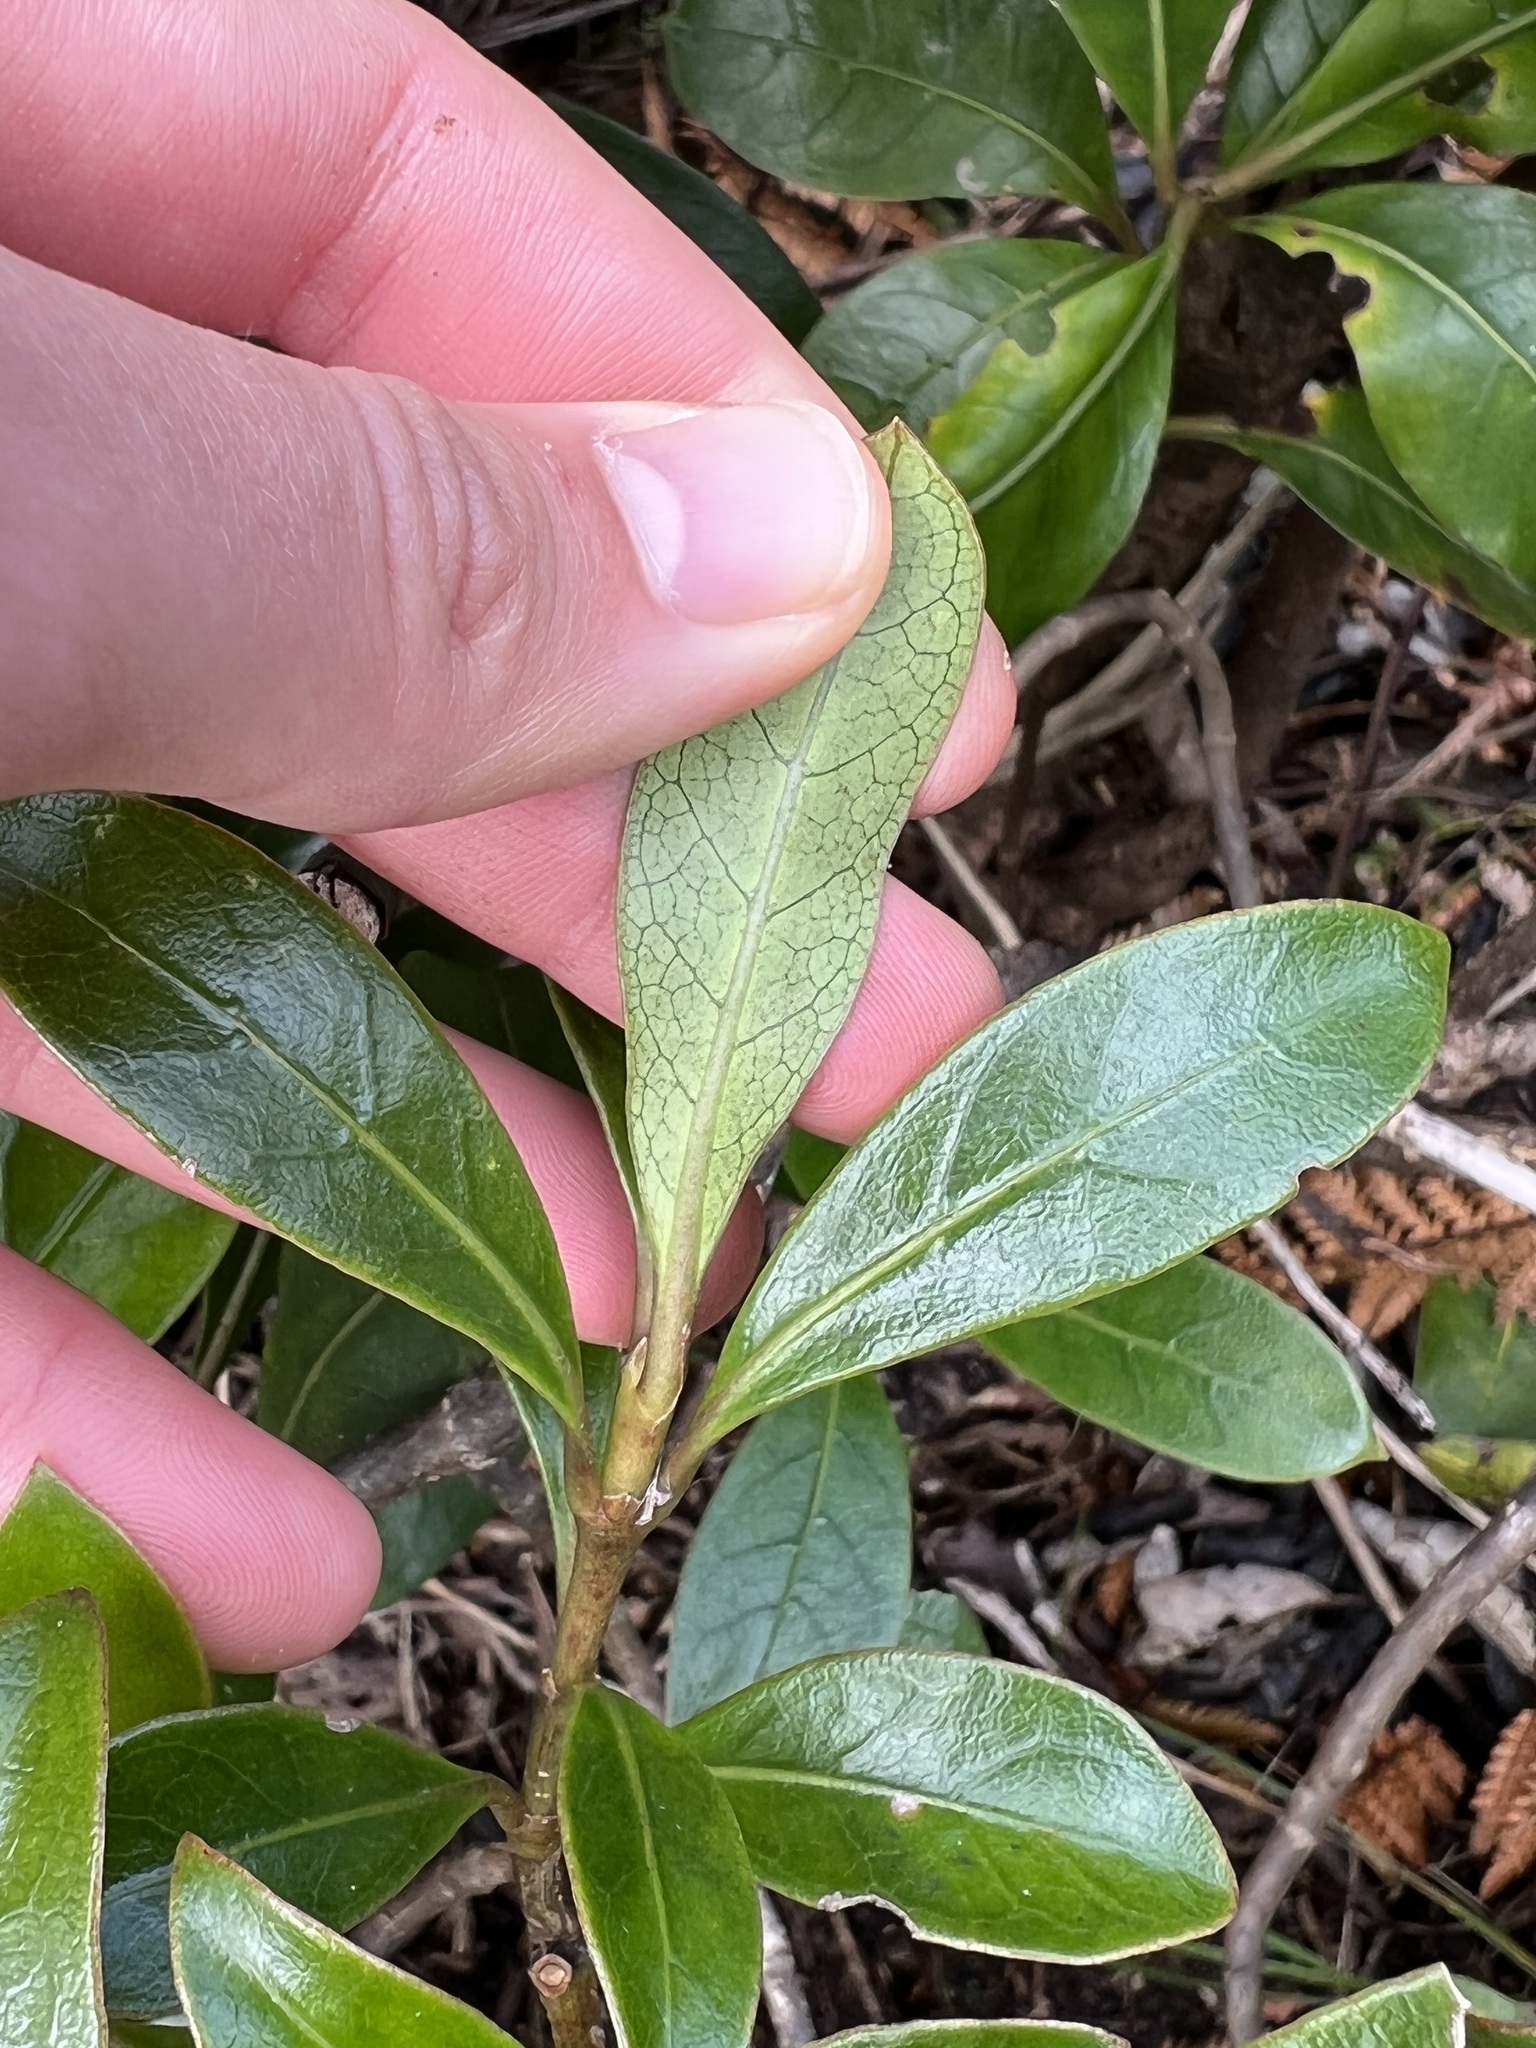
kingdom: Plantae
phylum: Tracheophyta
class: Magnoliopsida
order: Gentianales
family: Rubiaceae
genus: Coprosma
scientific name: Coprosma lucida
